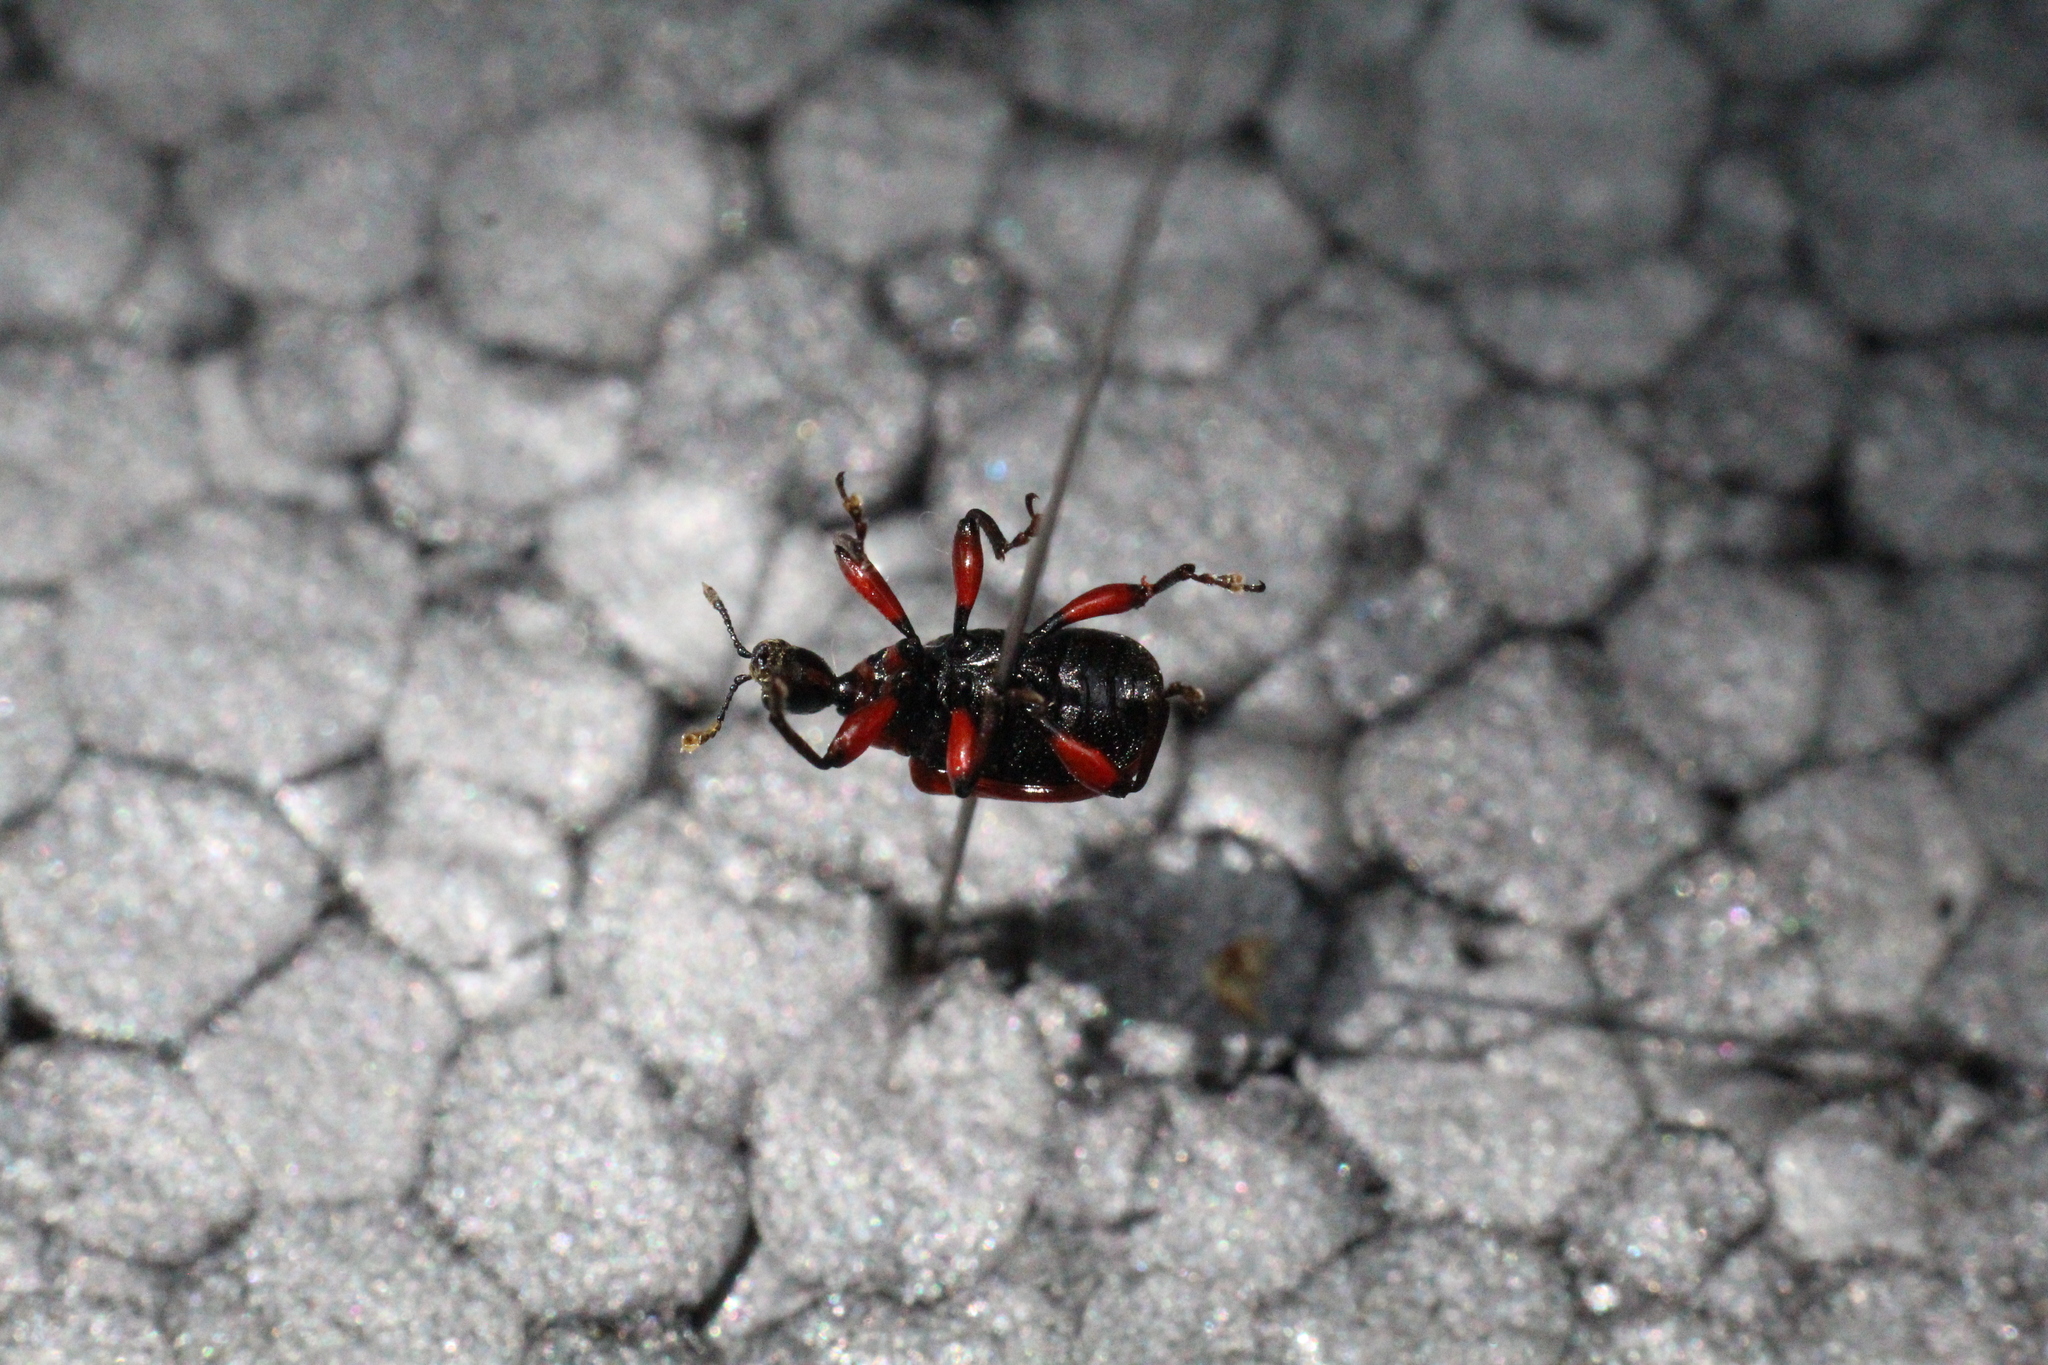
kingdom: Animalia
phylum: Arthropoda
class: Insecta
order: Coleoptera
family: Attelabidae
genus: Apoderus
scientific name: Apoderus coryli
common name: Hazel leaf roller
